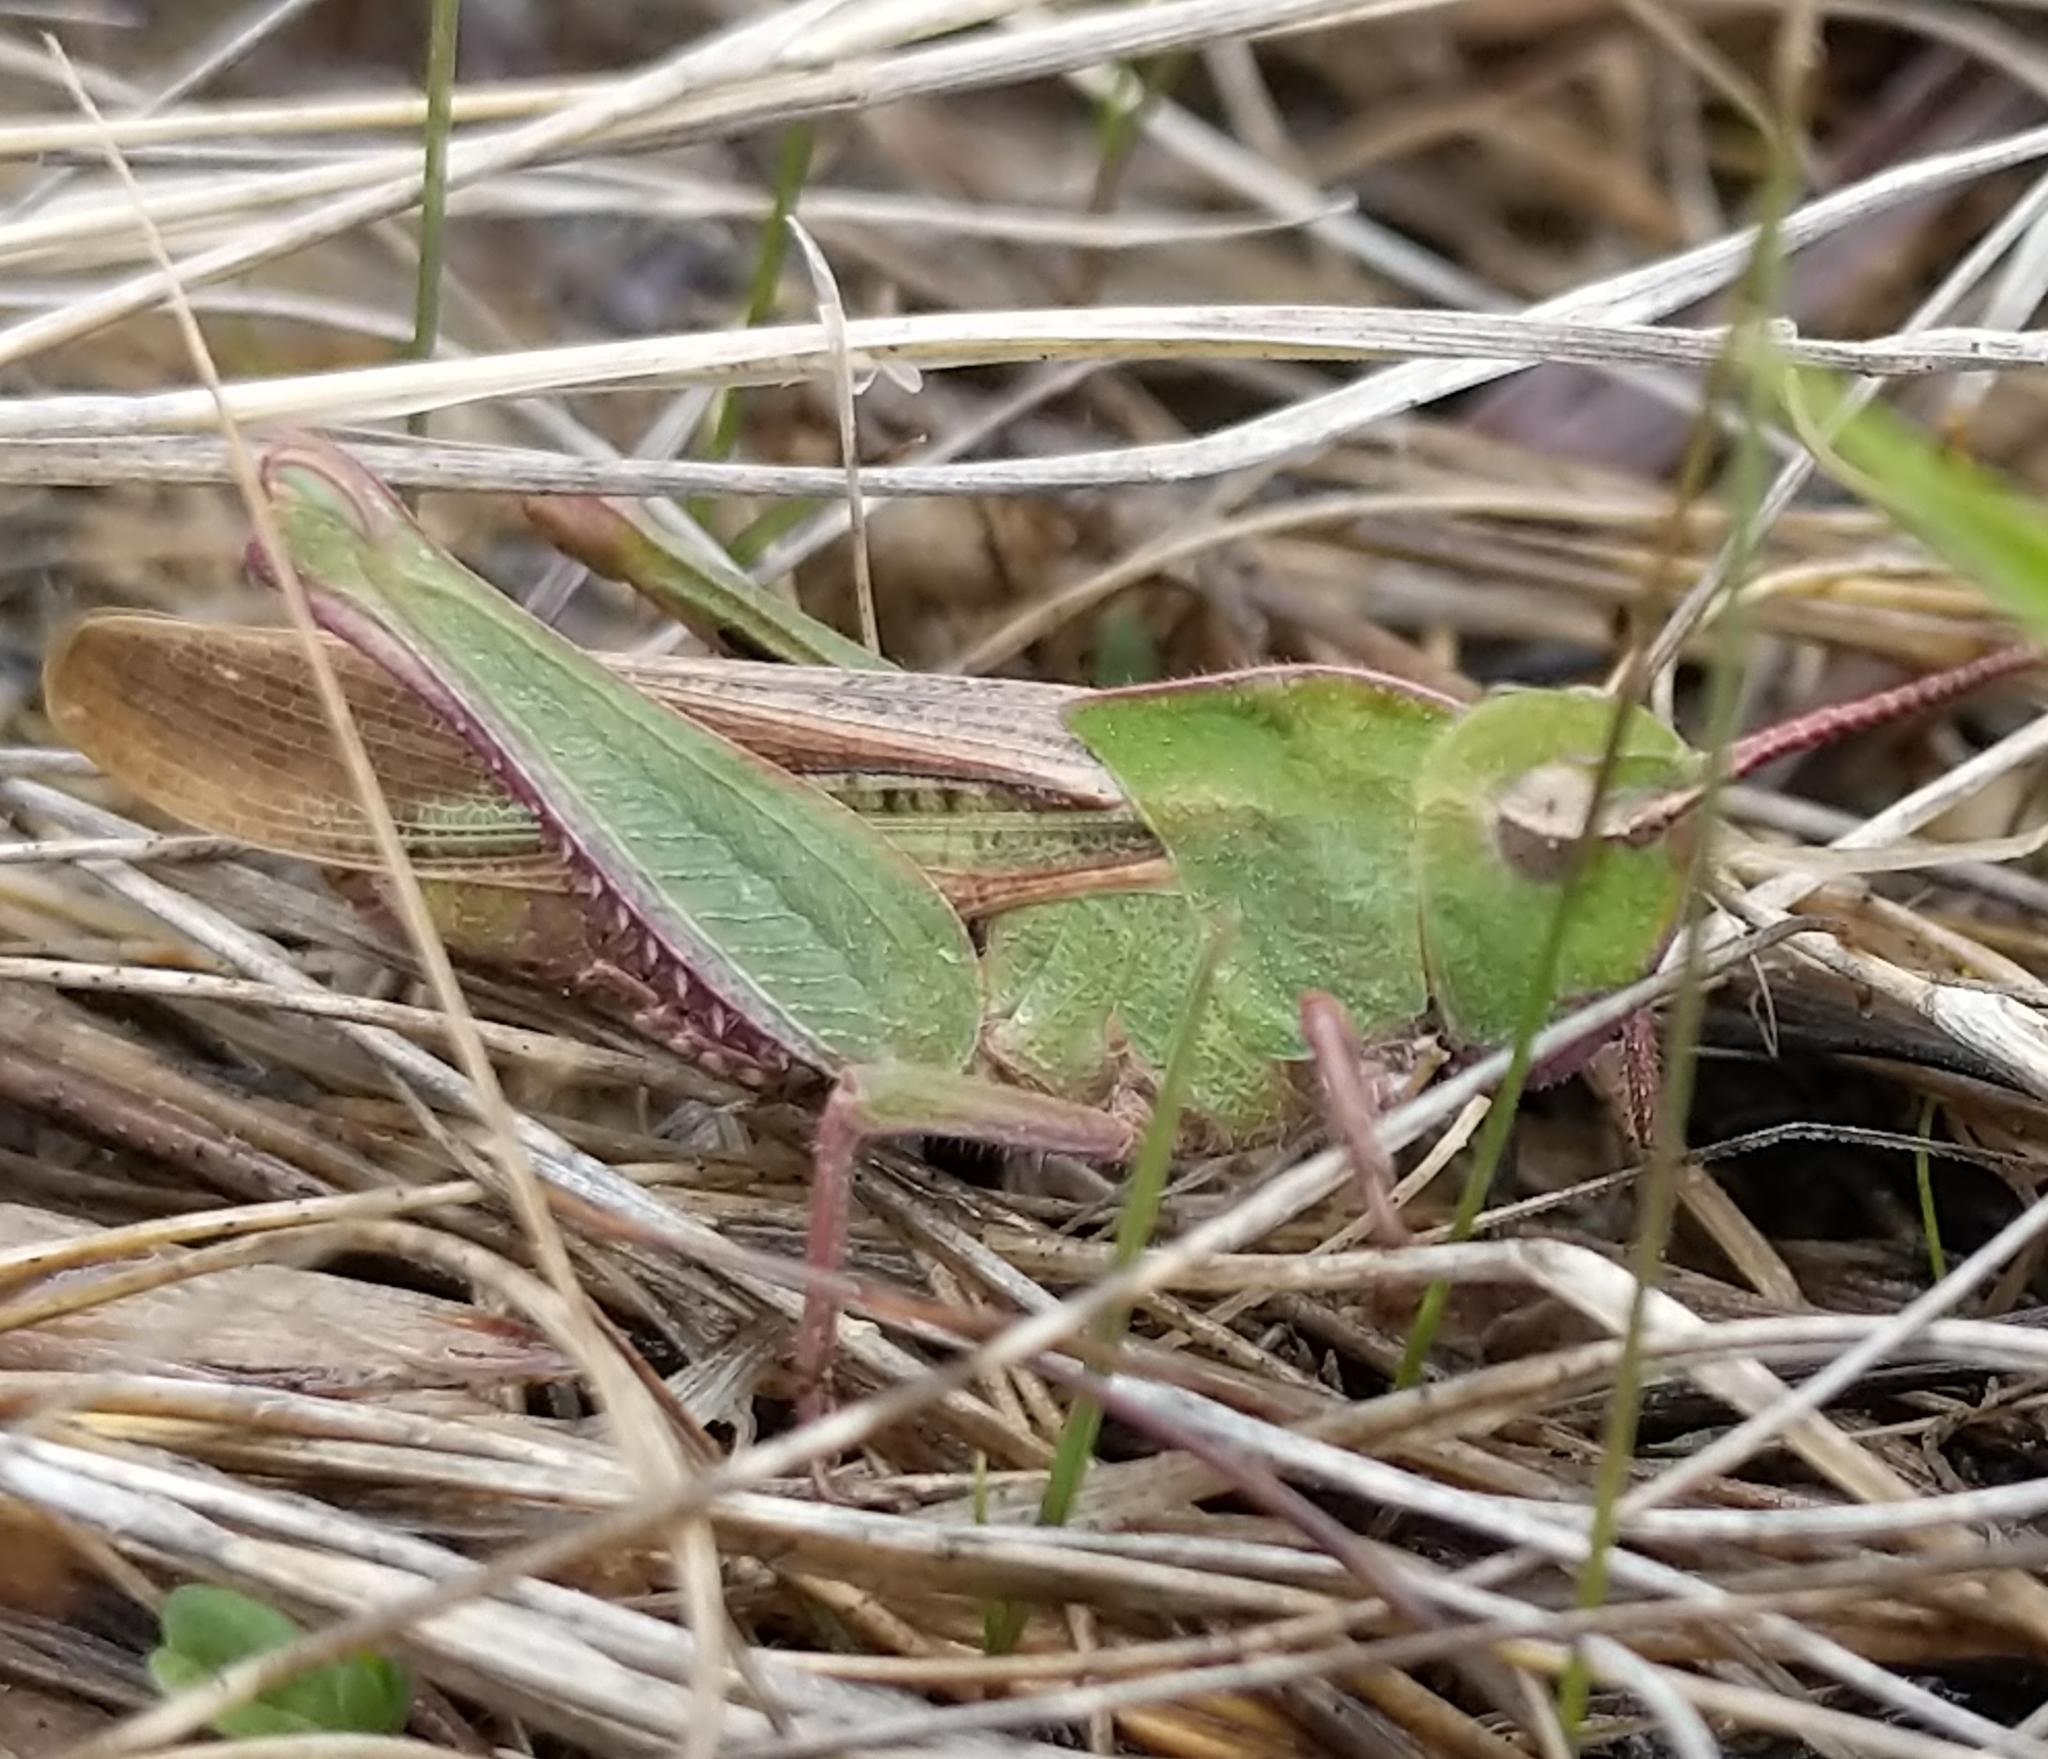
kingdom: Animalia
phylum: Arthropoda
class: Insecta
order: Orthoptera
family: Acrididae
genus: Chortophaga
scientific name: Chortophaga viridifasciata
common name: Green-striped grasshopper
